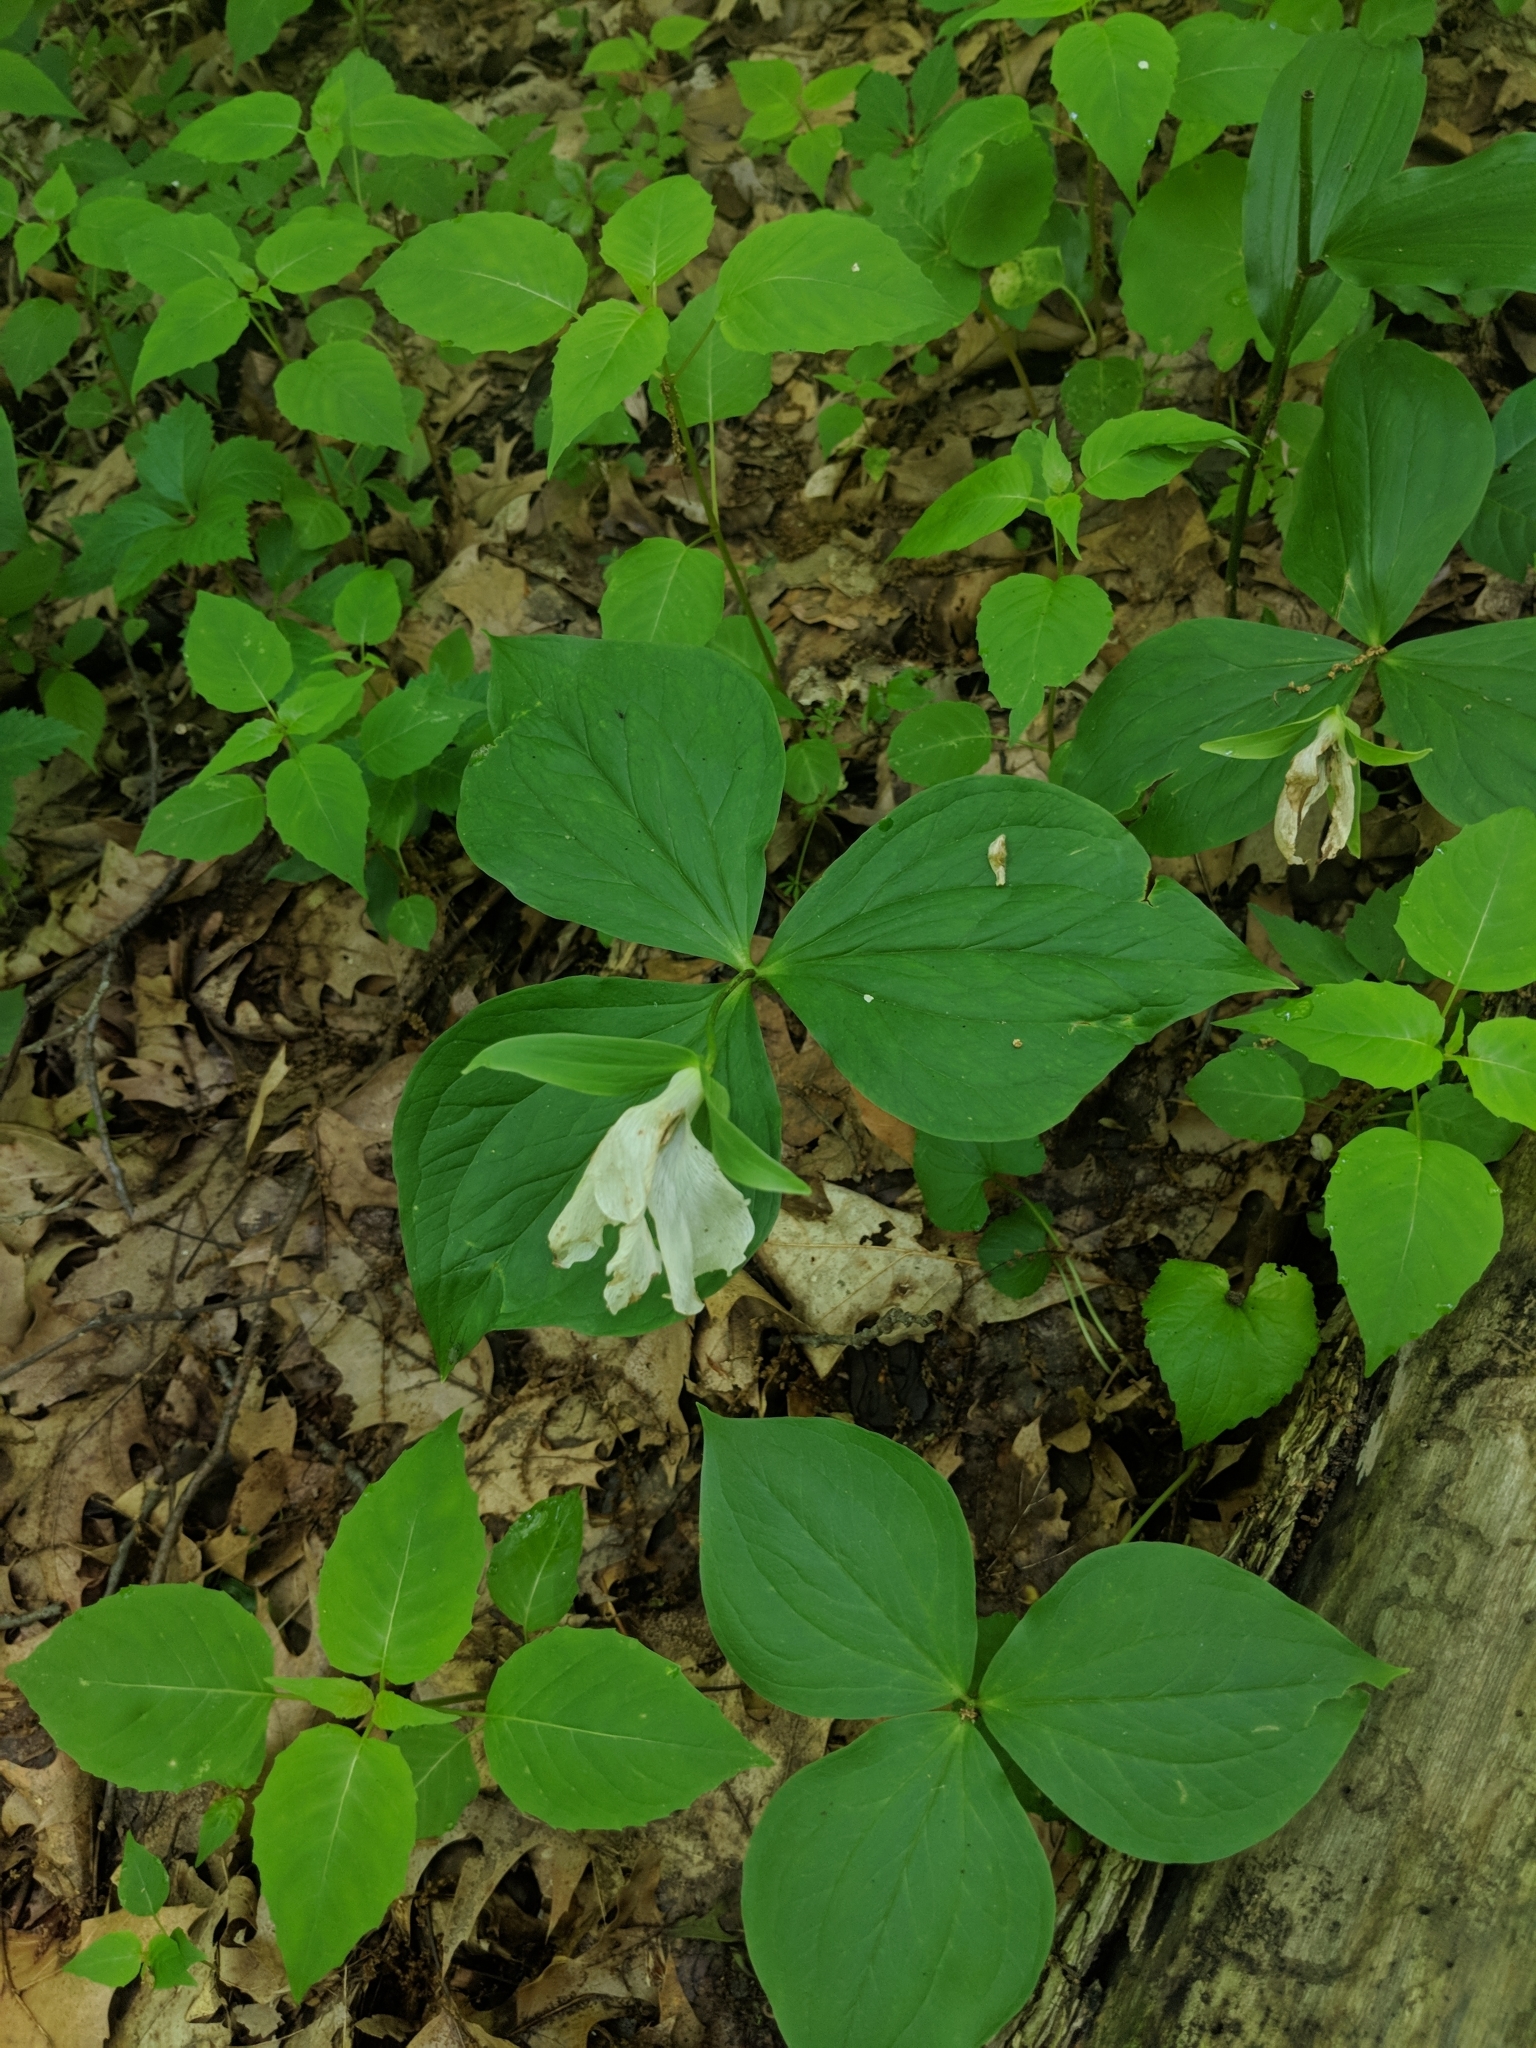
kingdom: Plantae
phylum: Tracheophyta
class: Liliopsida
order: Liliales
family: Melanthiaceae
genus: Trillium
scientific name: Trillium grandiflorum
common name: Great white trillium
